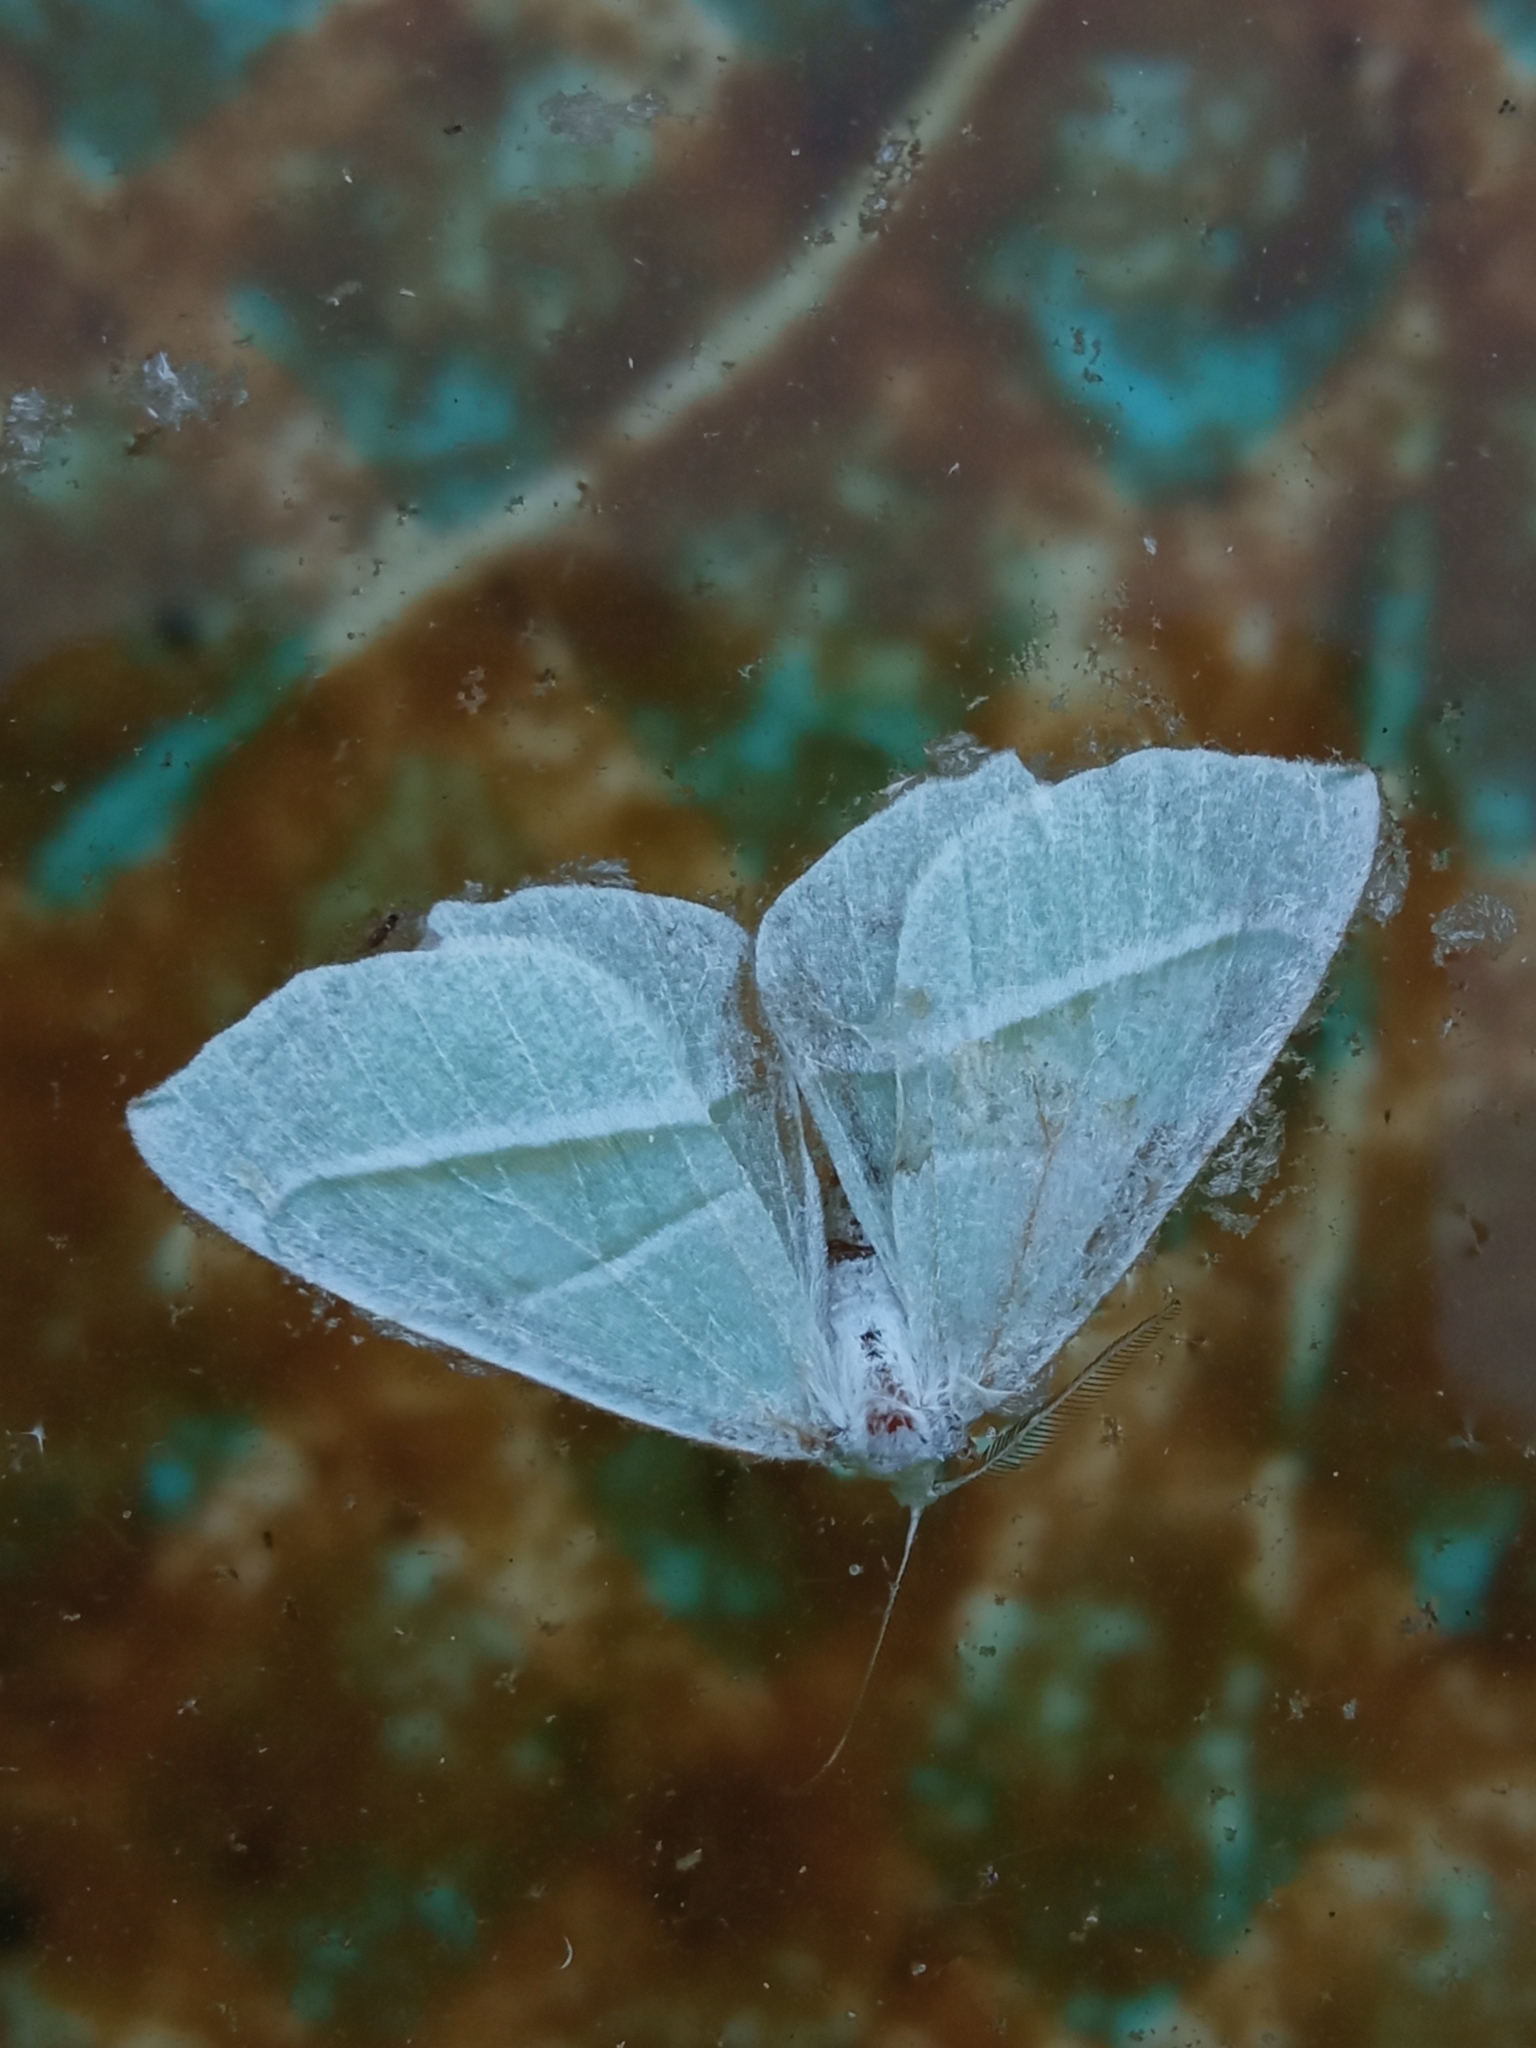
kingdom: Animalia
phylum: Arthropoda
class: Insecta
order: Lepidoptera
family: Geometridae
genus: Campaea
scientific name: Campaea margaritaria
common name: Light emerald
